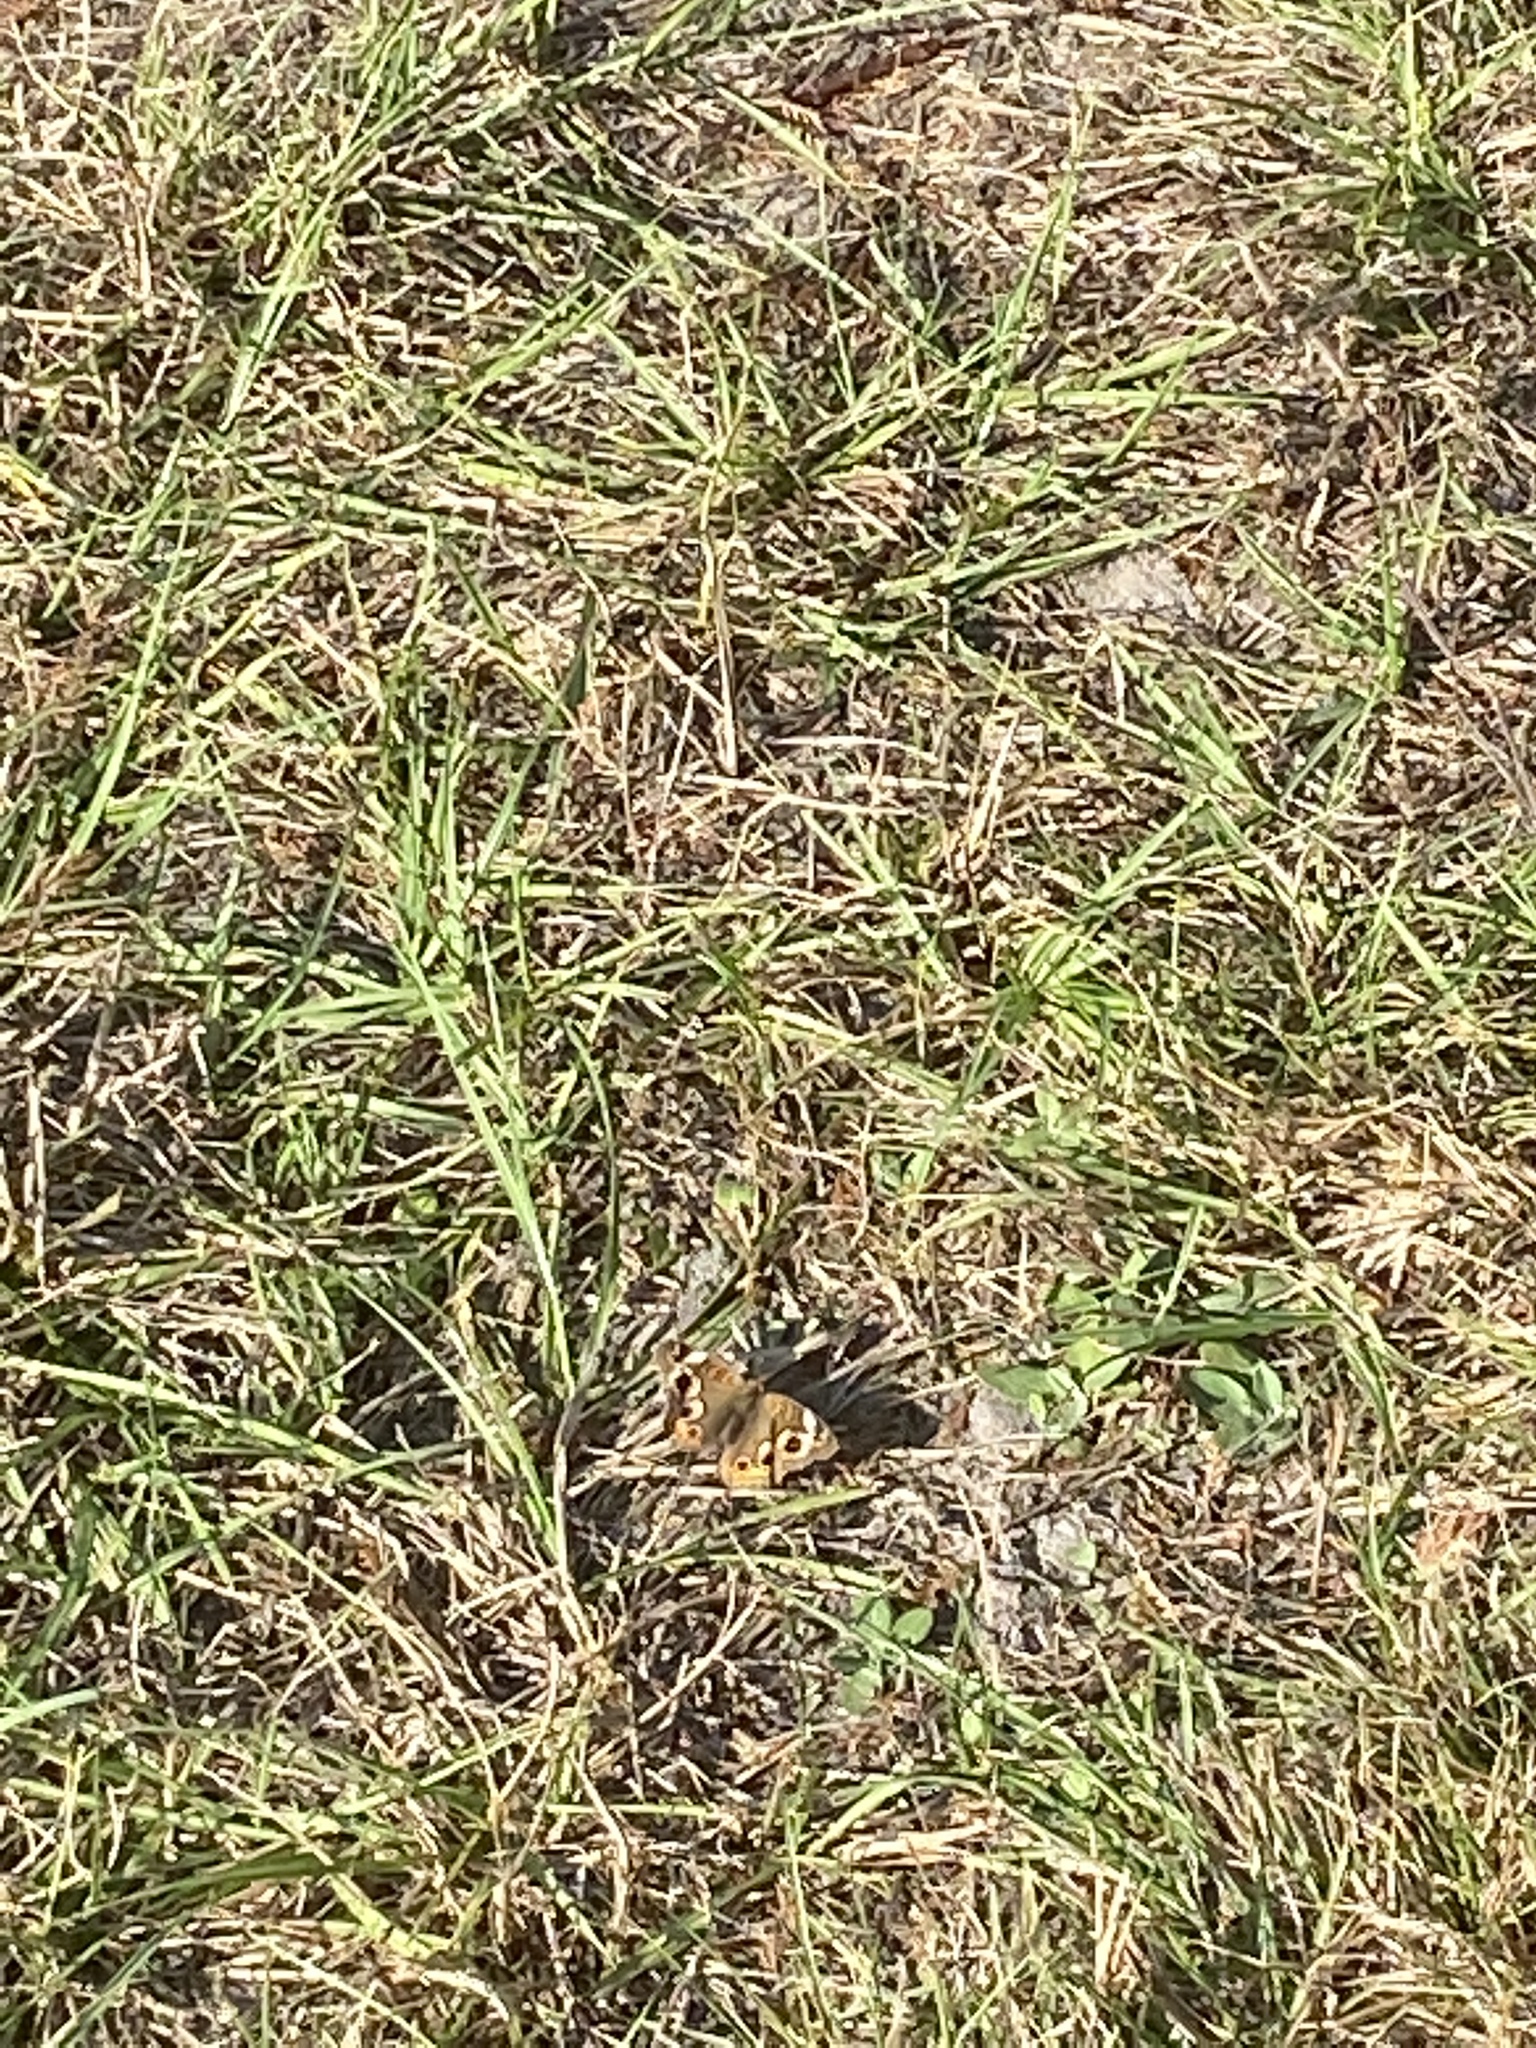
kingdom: Animalia
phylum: Arthropoda
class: Insecta
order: Lepidoptera
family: Nymphalidae
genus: Junonia
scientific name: Junonia coenia
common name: Common buckeye
